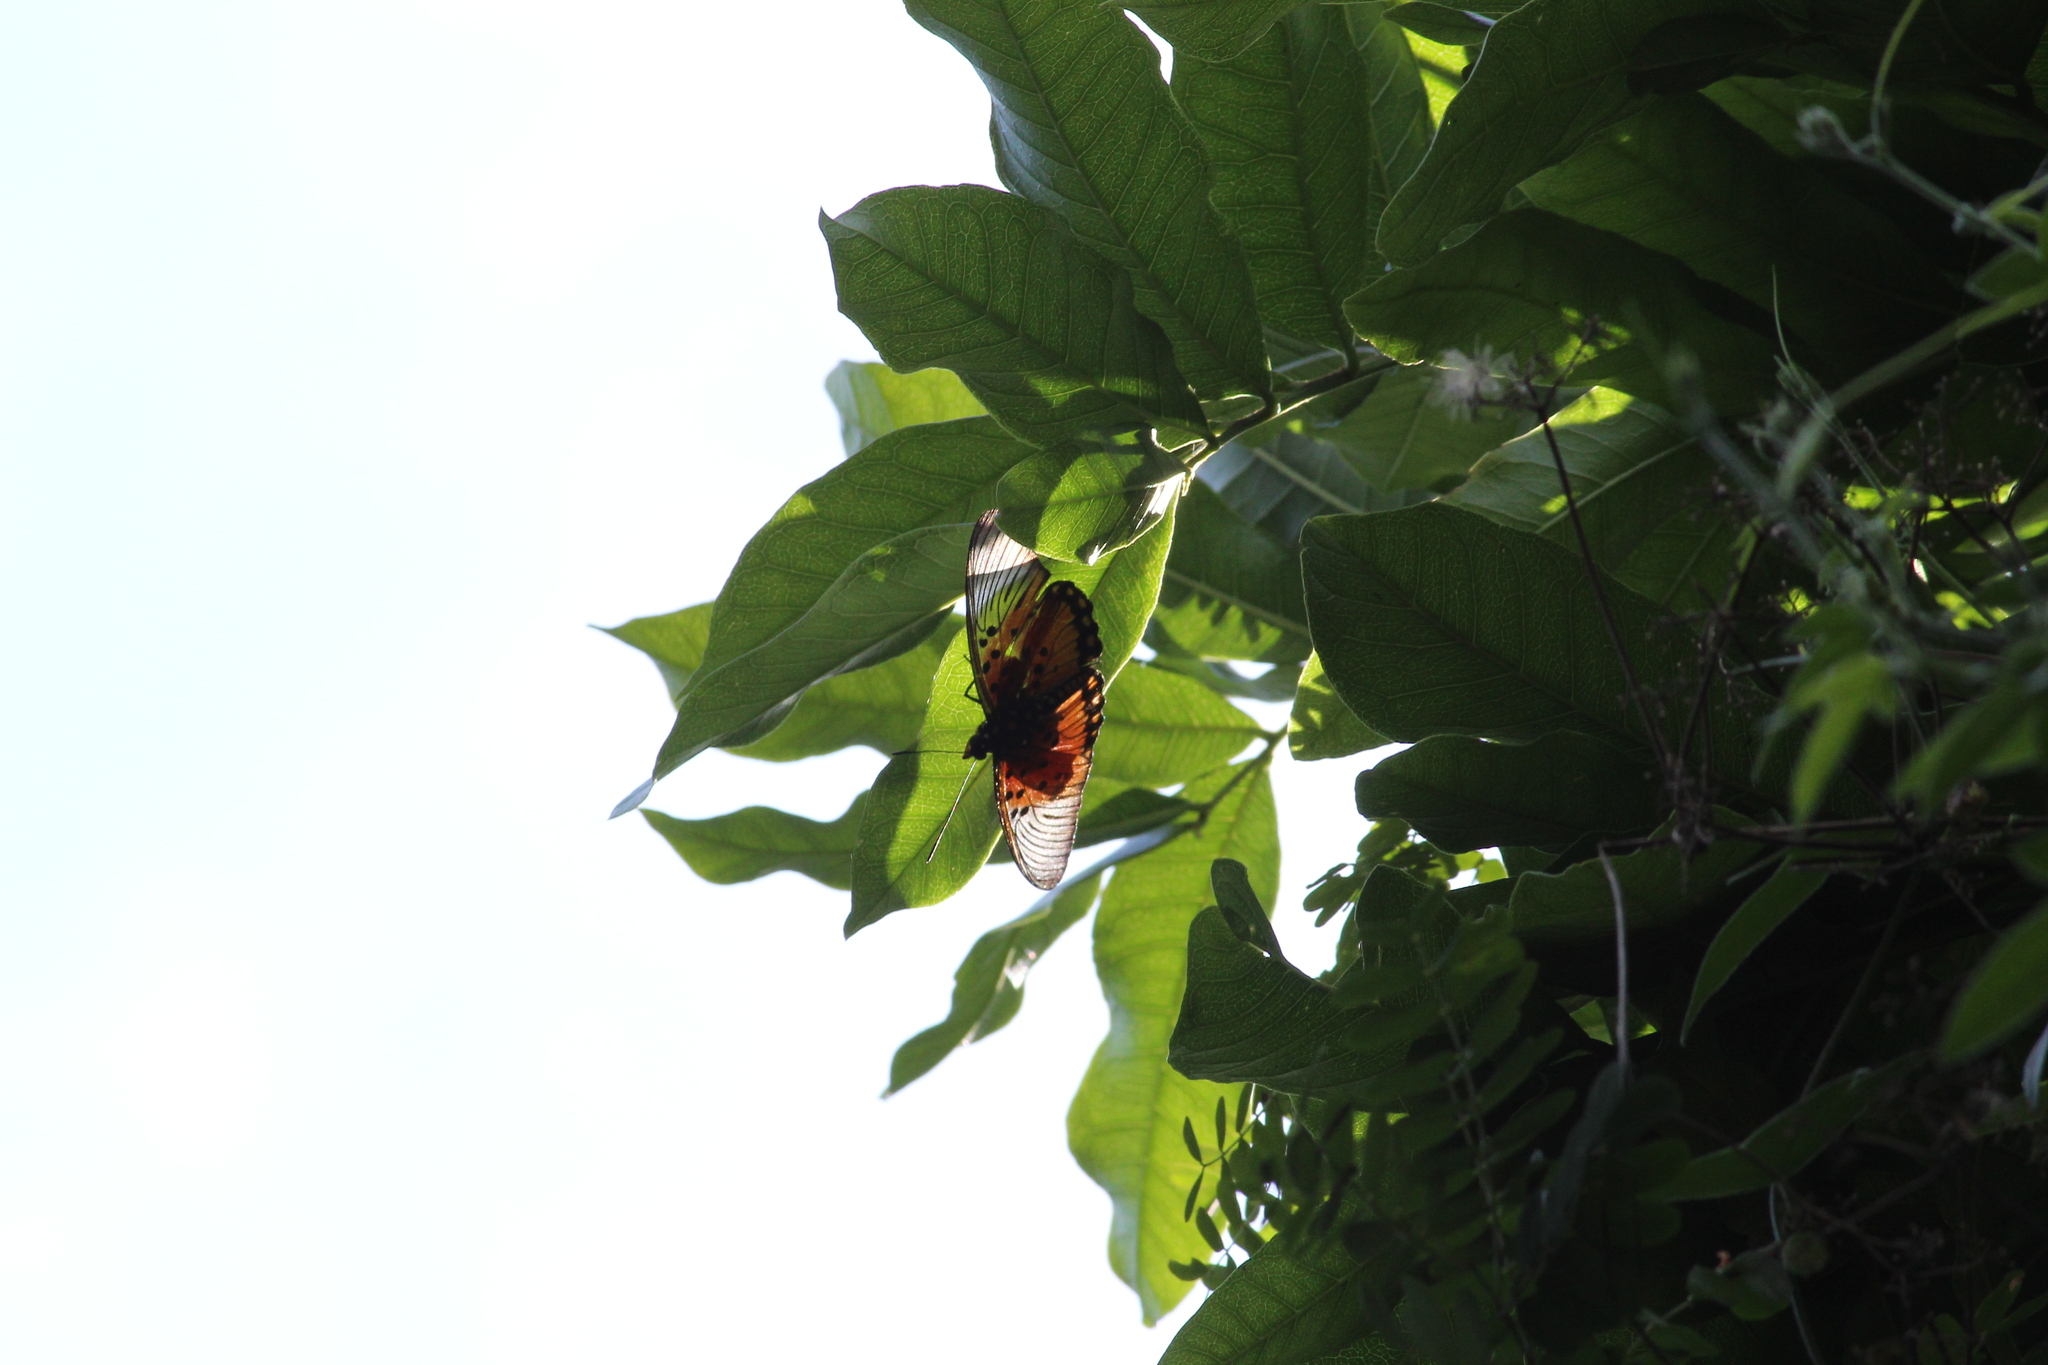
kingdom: Animalia
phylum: Arthropoda
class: Insecta
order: Lepidoptera
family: Nymphalidae
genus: Chloropoea
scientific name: Chloropoea boisduvalii
